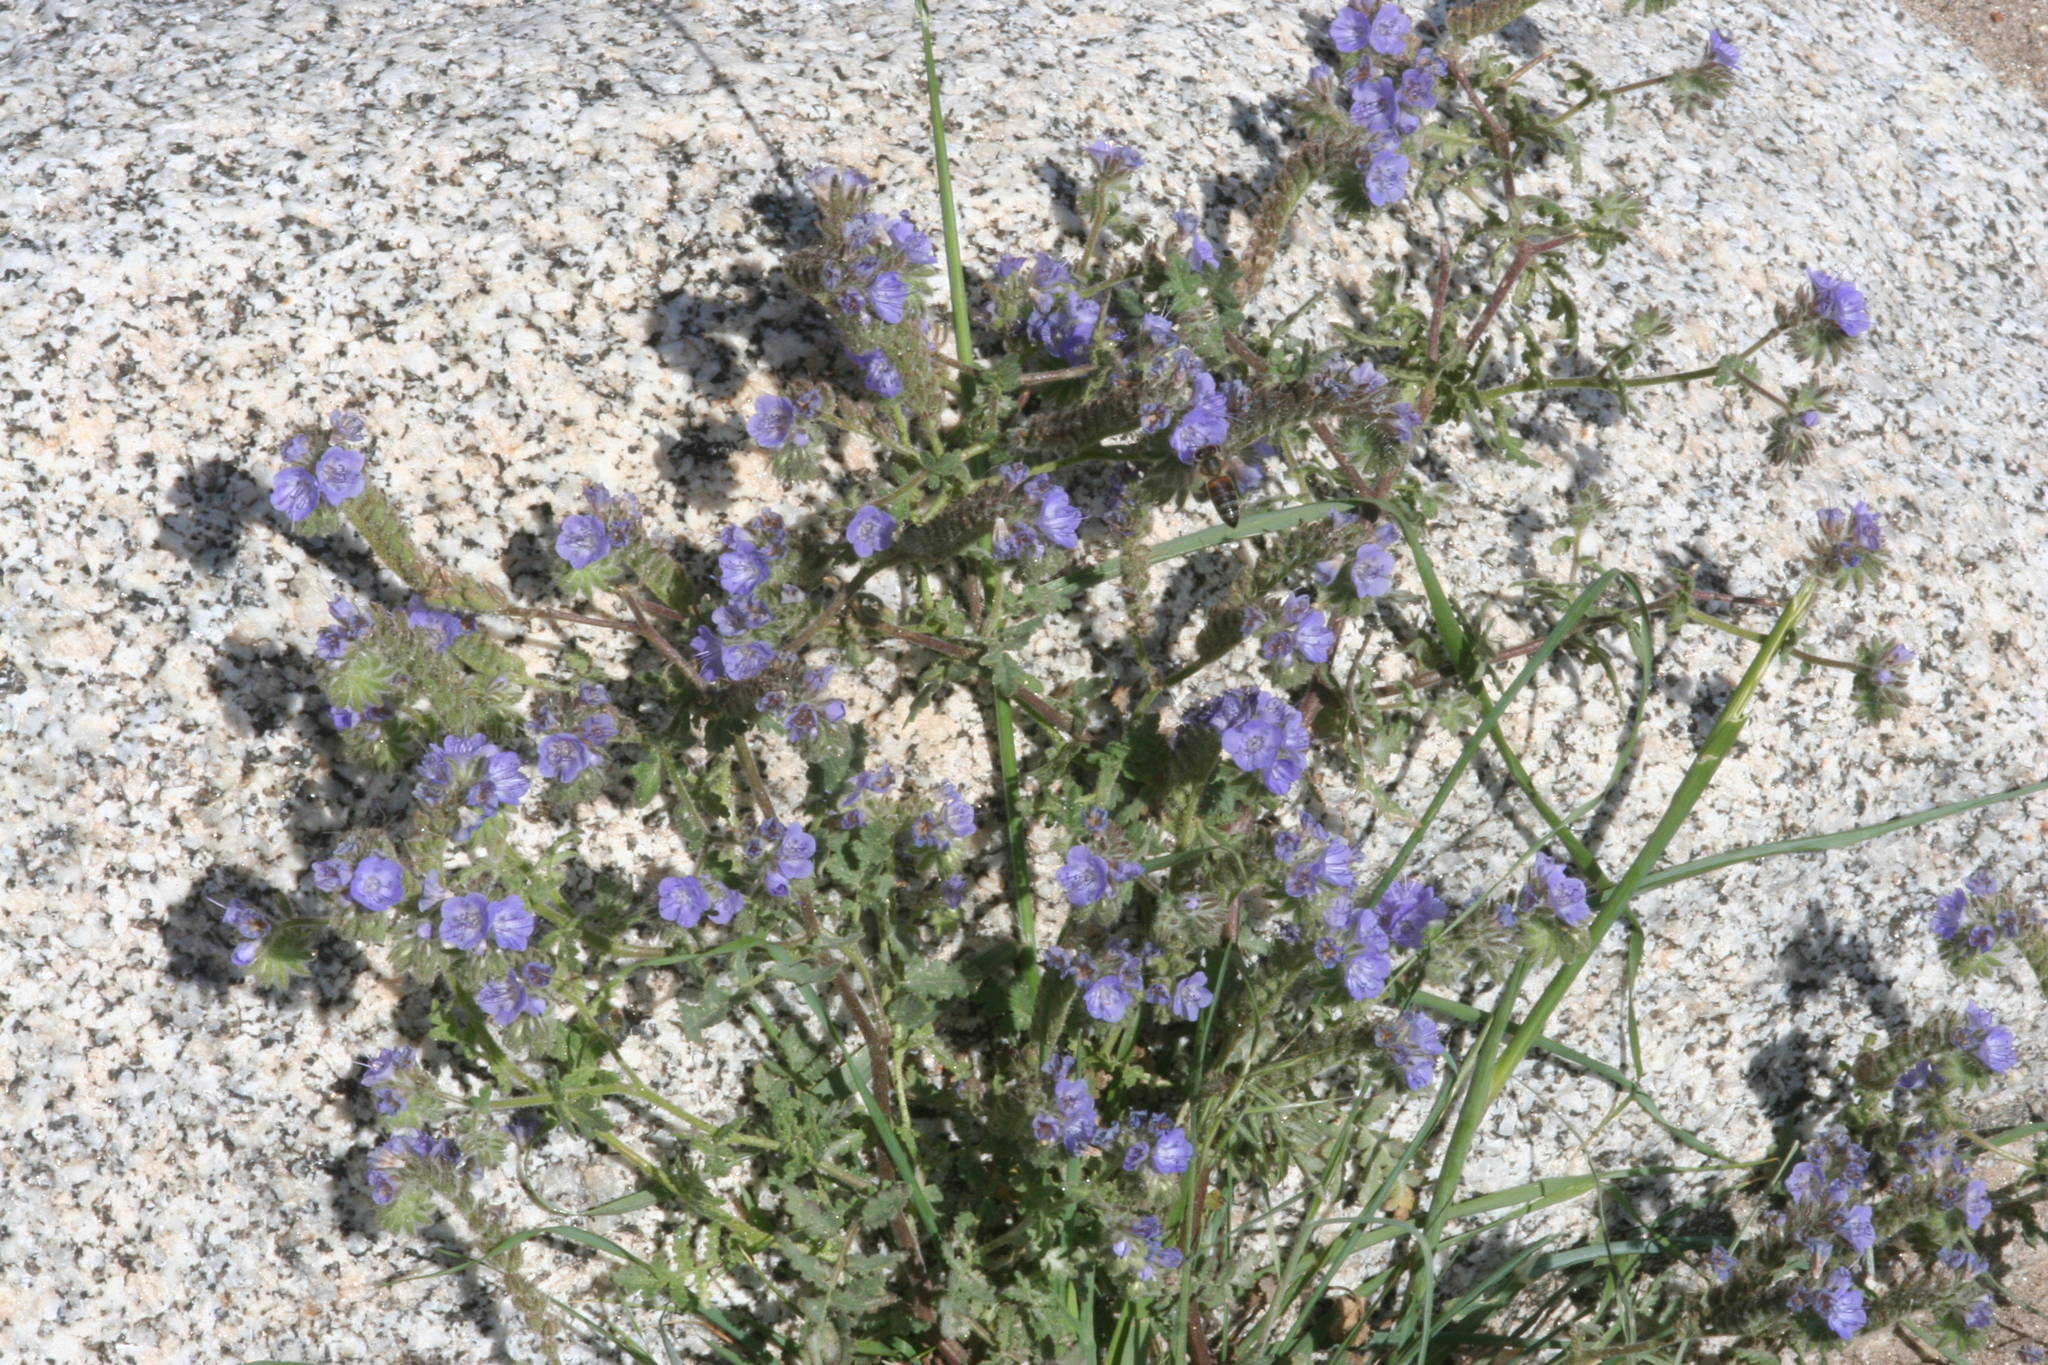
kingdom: Plantae
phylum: Tracheophyta
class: Magnoliopsida
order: Boraginales
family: Hydrophyllaceae
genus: Phacelia
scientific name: Phacelia distans
